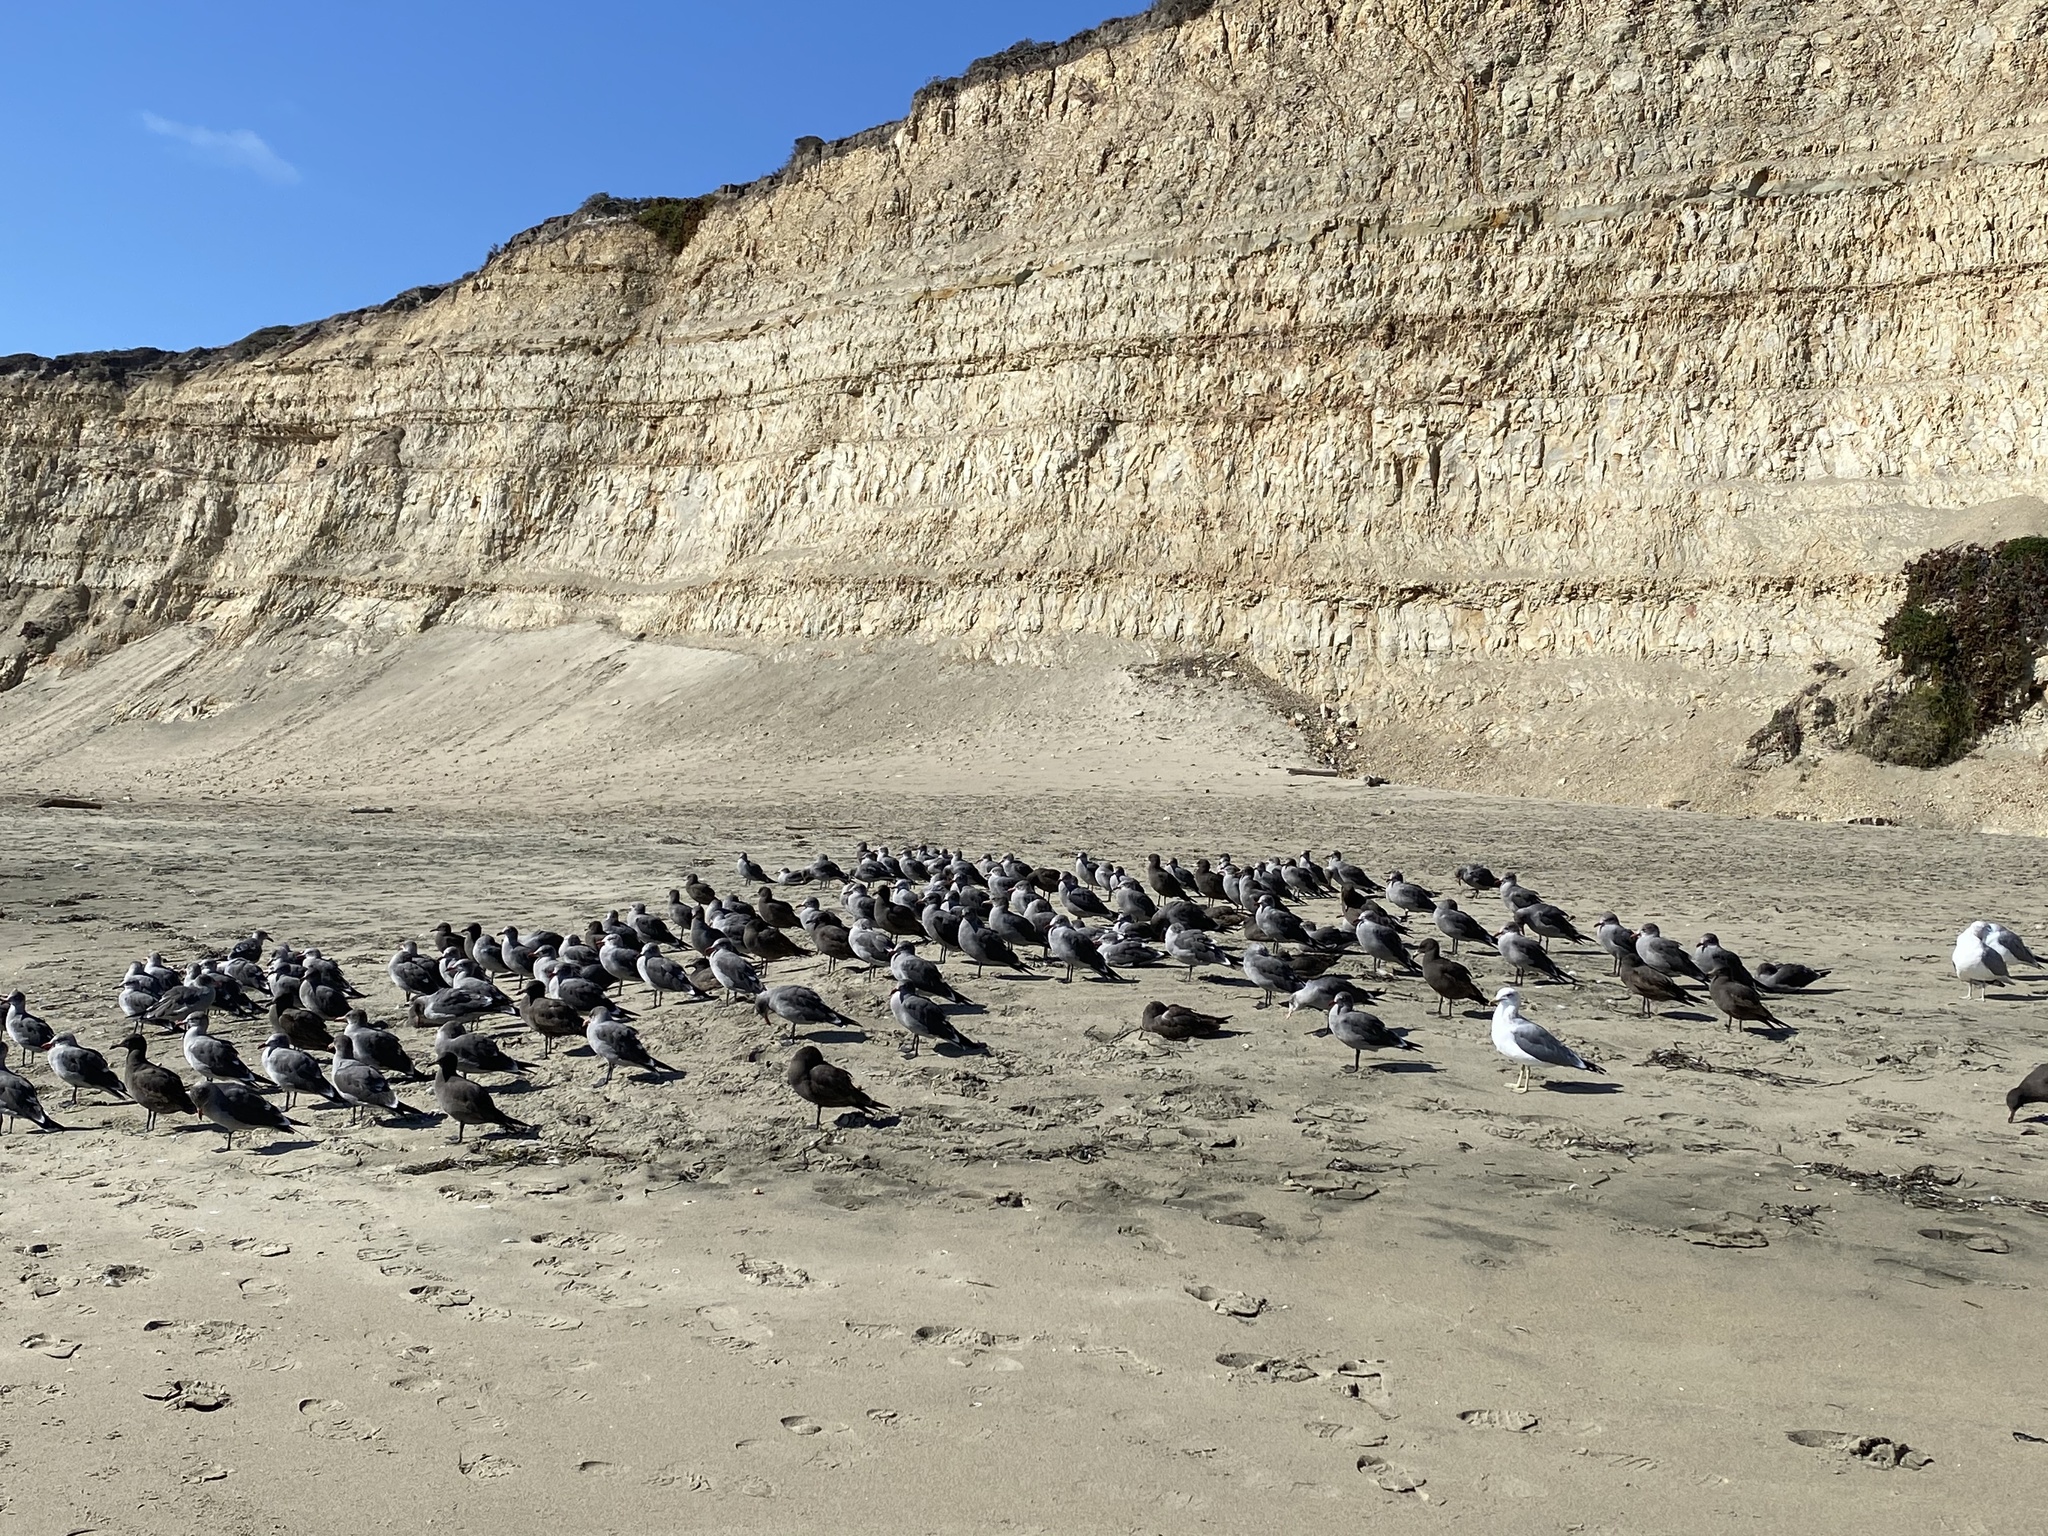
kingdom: Animalia
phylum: Chordata
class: Aves
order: Charadriiformes
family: Laridae
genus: Larus
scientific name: Larus heermanni
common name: Heermann's gull
